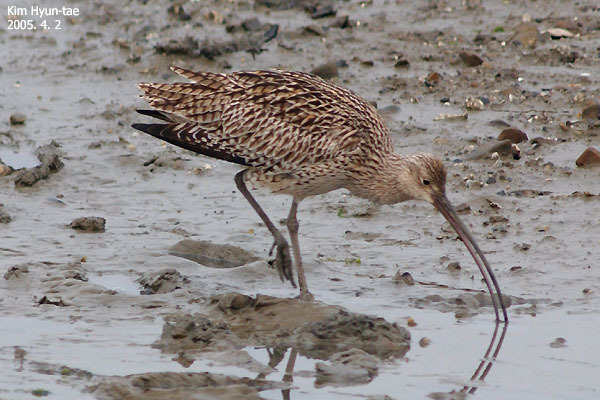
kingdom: Animalia
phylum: Chordata
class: Aves
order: Charadriiformes
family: Scolopacidae
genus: Numenius
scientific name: Numenius madagascariensis
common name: Far eastern curlew
